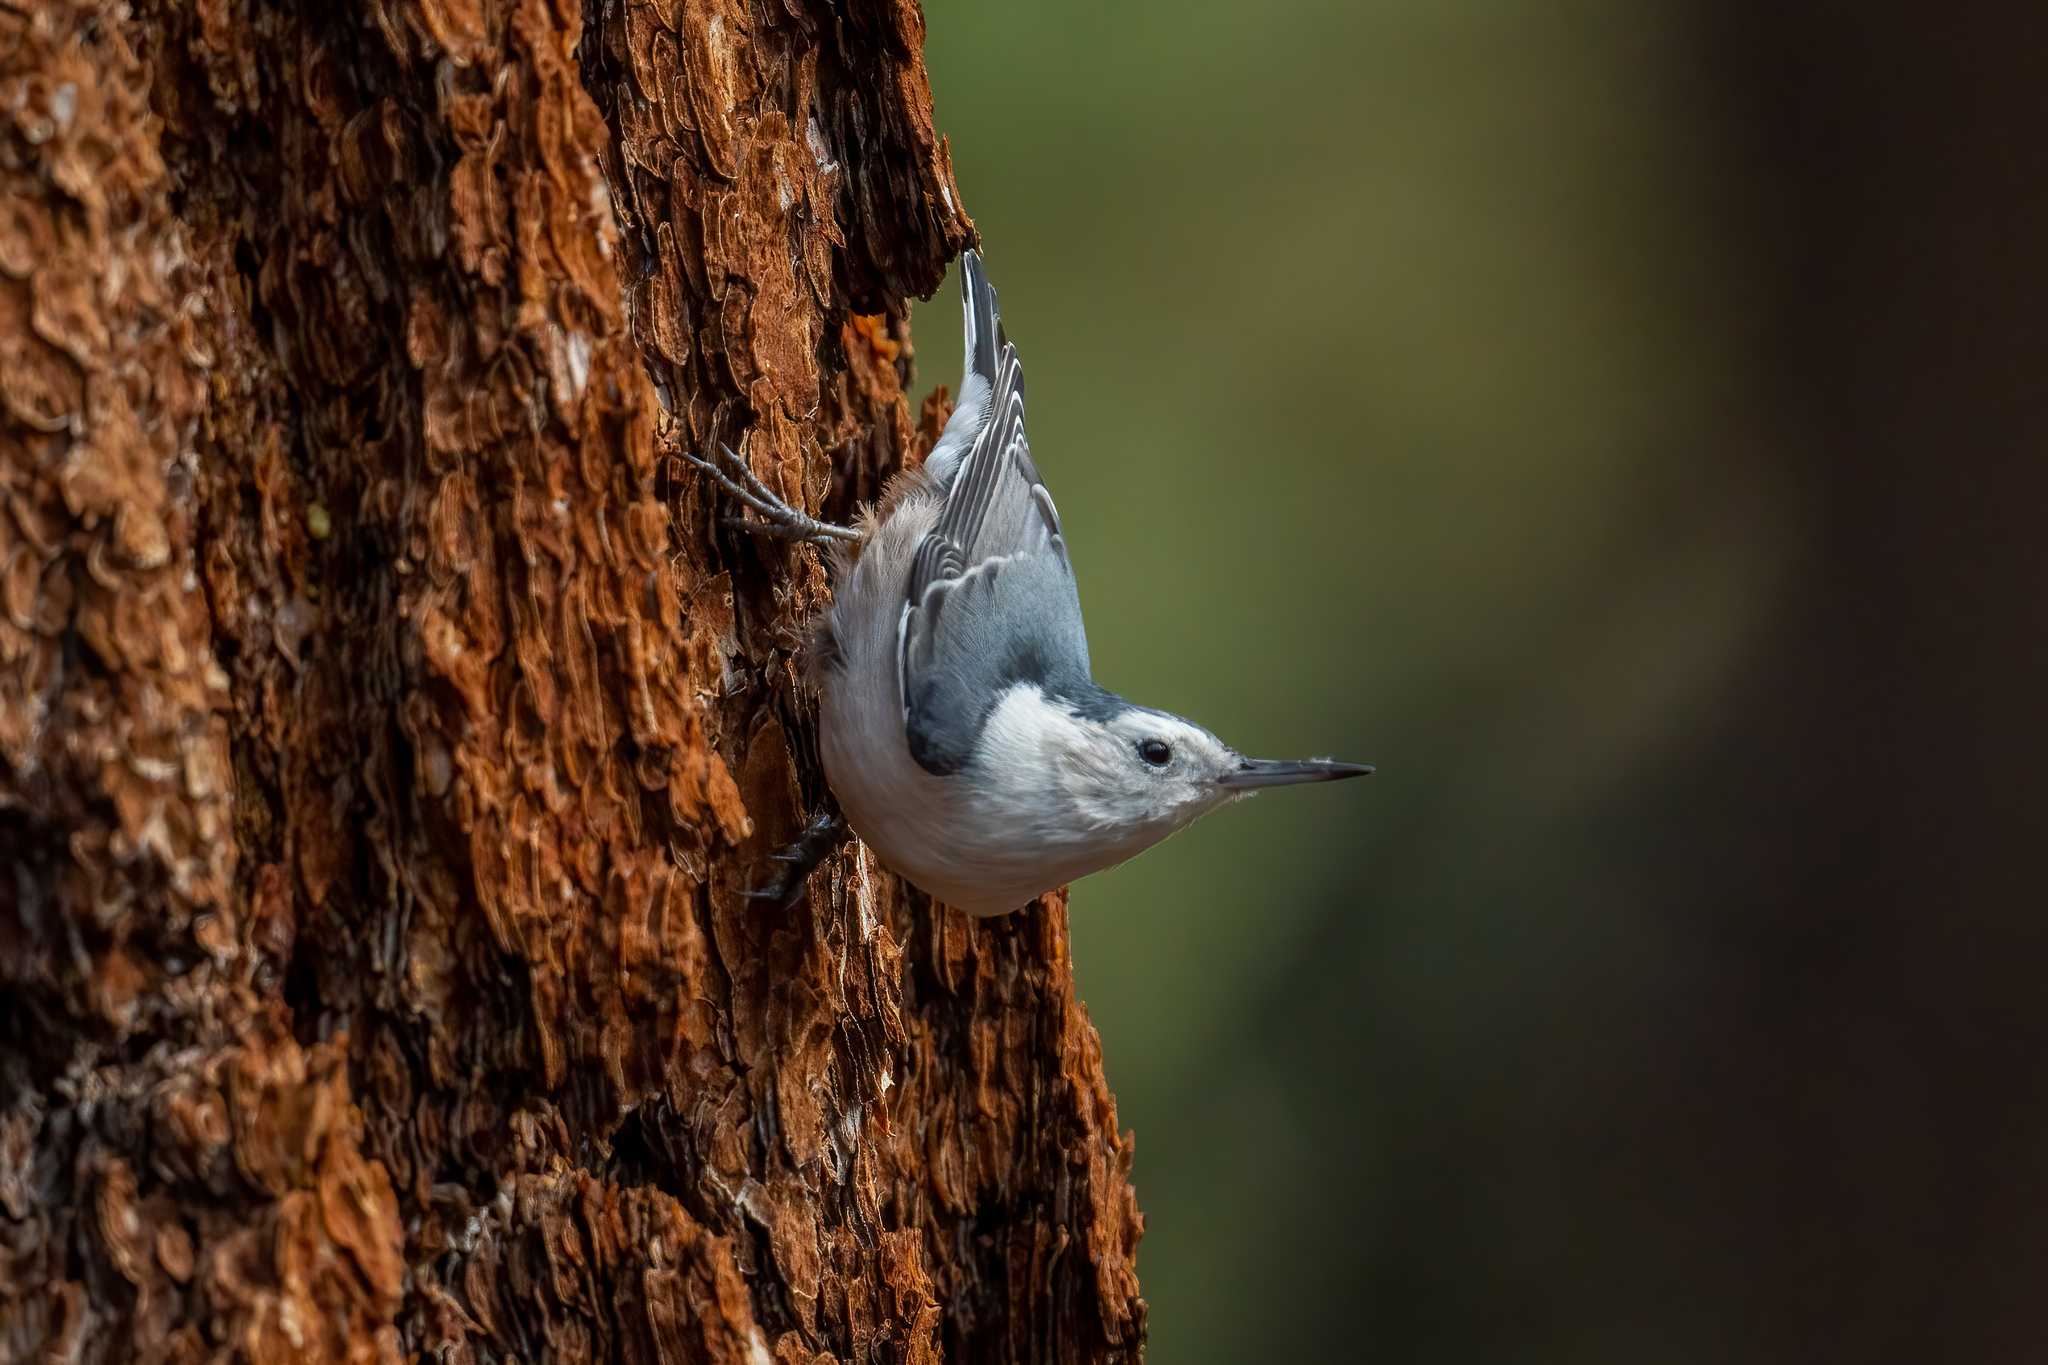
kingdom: Animalia
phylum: Chordata
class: Aves
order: Passeriformes
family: Sittidae
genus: Sitta
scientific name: Sitta carolinensis
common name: White-breasted nuthatch
